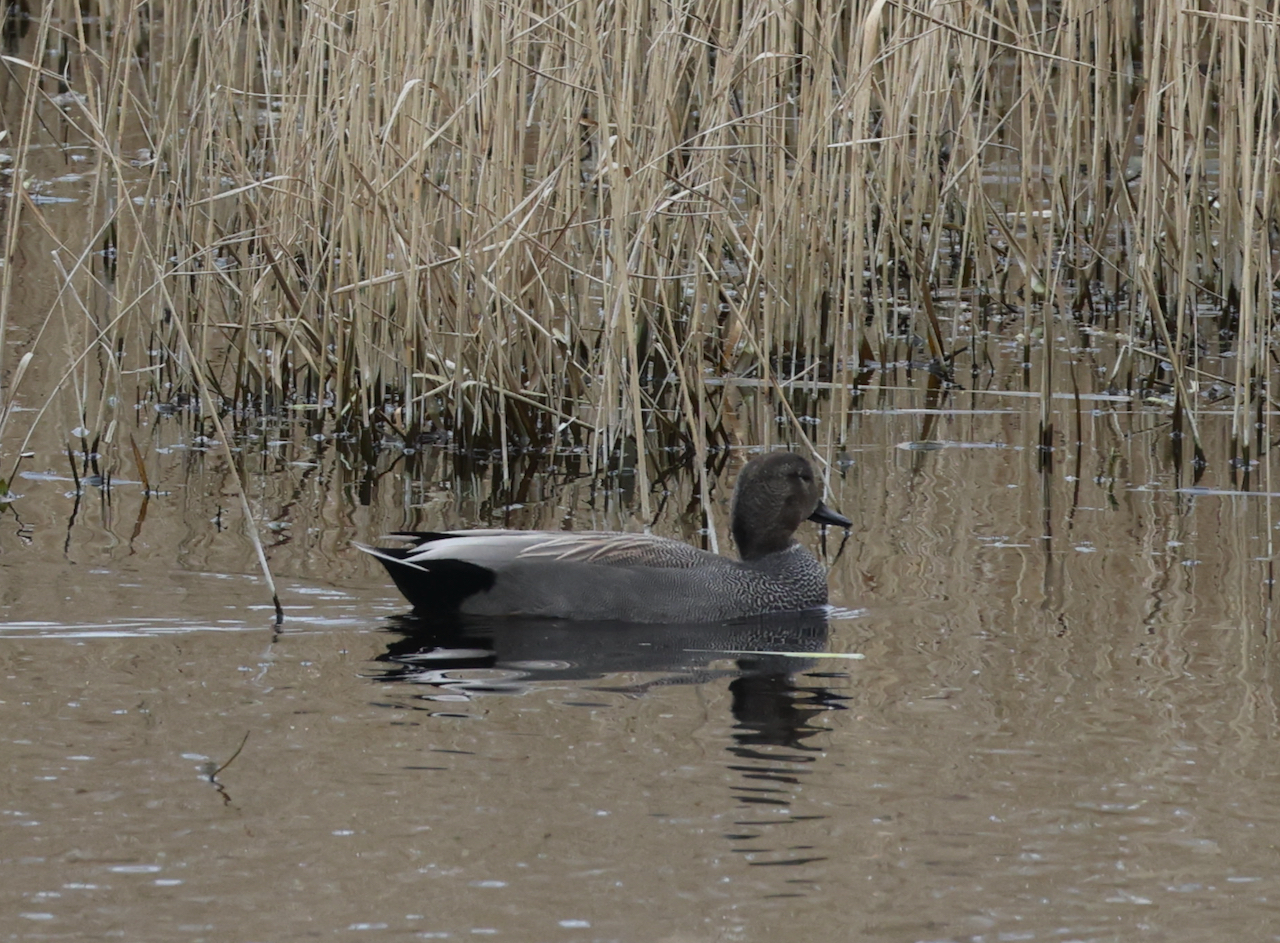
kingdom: Animalia
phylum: Chordata
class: Aves
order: Anseriformes
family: Anatidae
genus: Mareca
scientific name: Mareca strepera
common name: Gadwall
